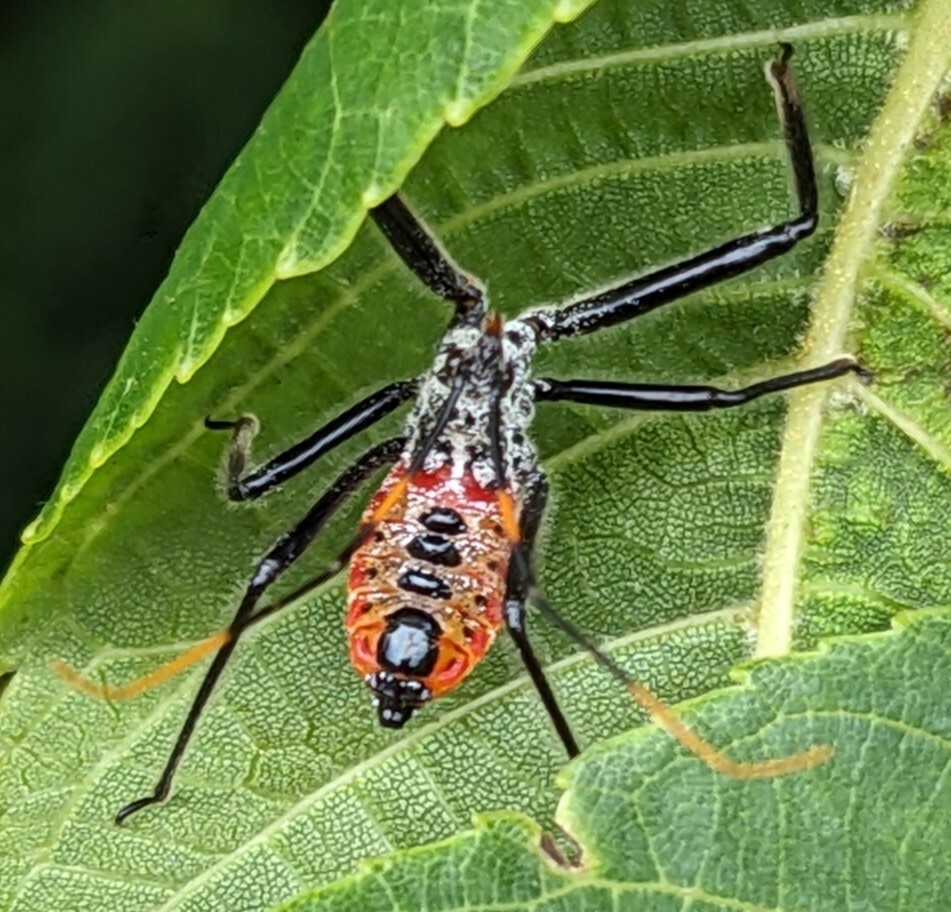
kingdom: Animalia
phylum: Arthropoda
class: Insecta
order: Hemiptera
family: Reduviidae
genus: Arilus
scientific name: Arilus cristatus
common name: North american wheel bug
